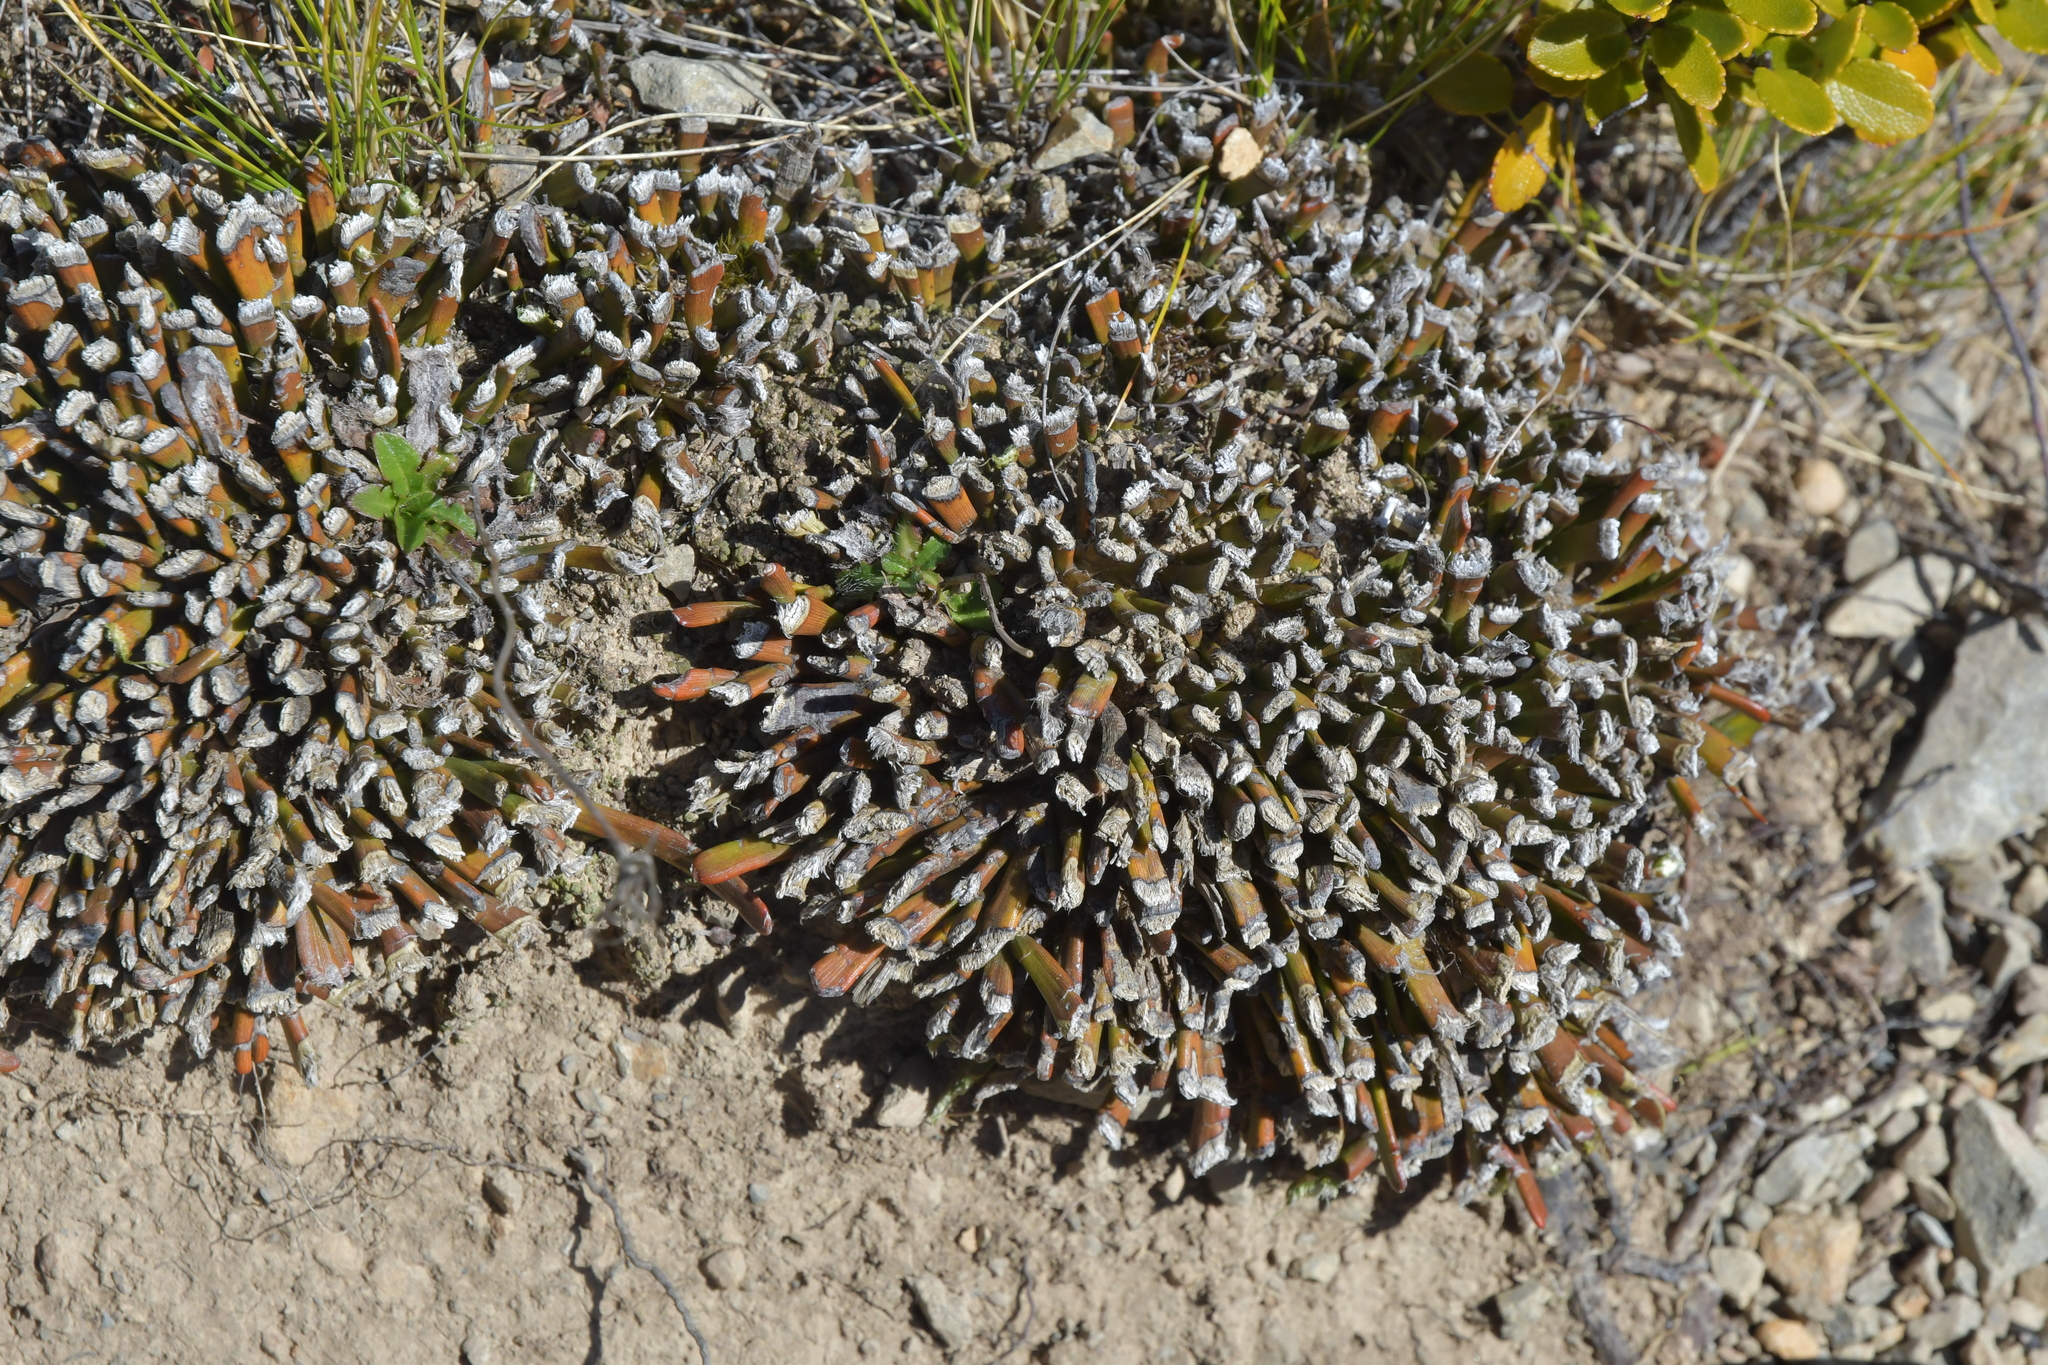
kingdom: Plantae
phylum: Tracheophyta
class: Magnoliopsida
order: Fabales
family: Fabaceae
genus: Carmichaelia
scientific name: Carmichaelia monroi
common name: Stout dwarf broom
